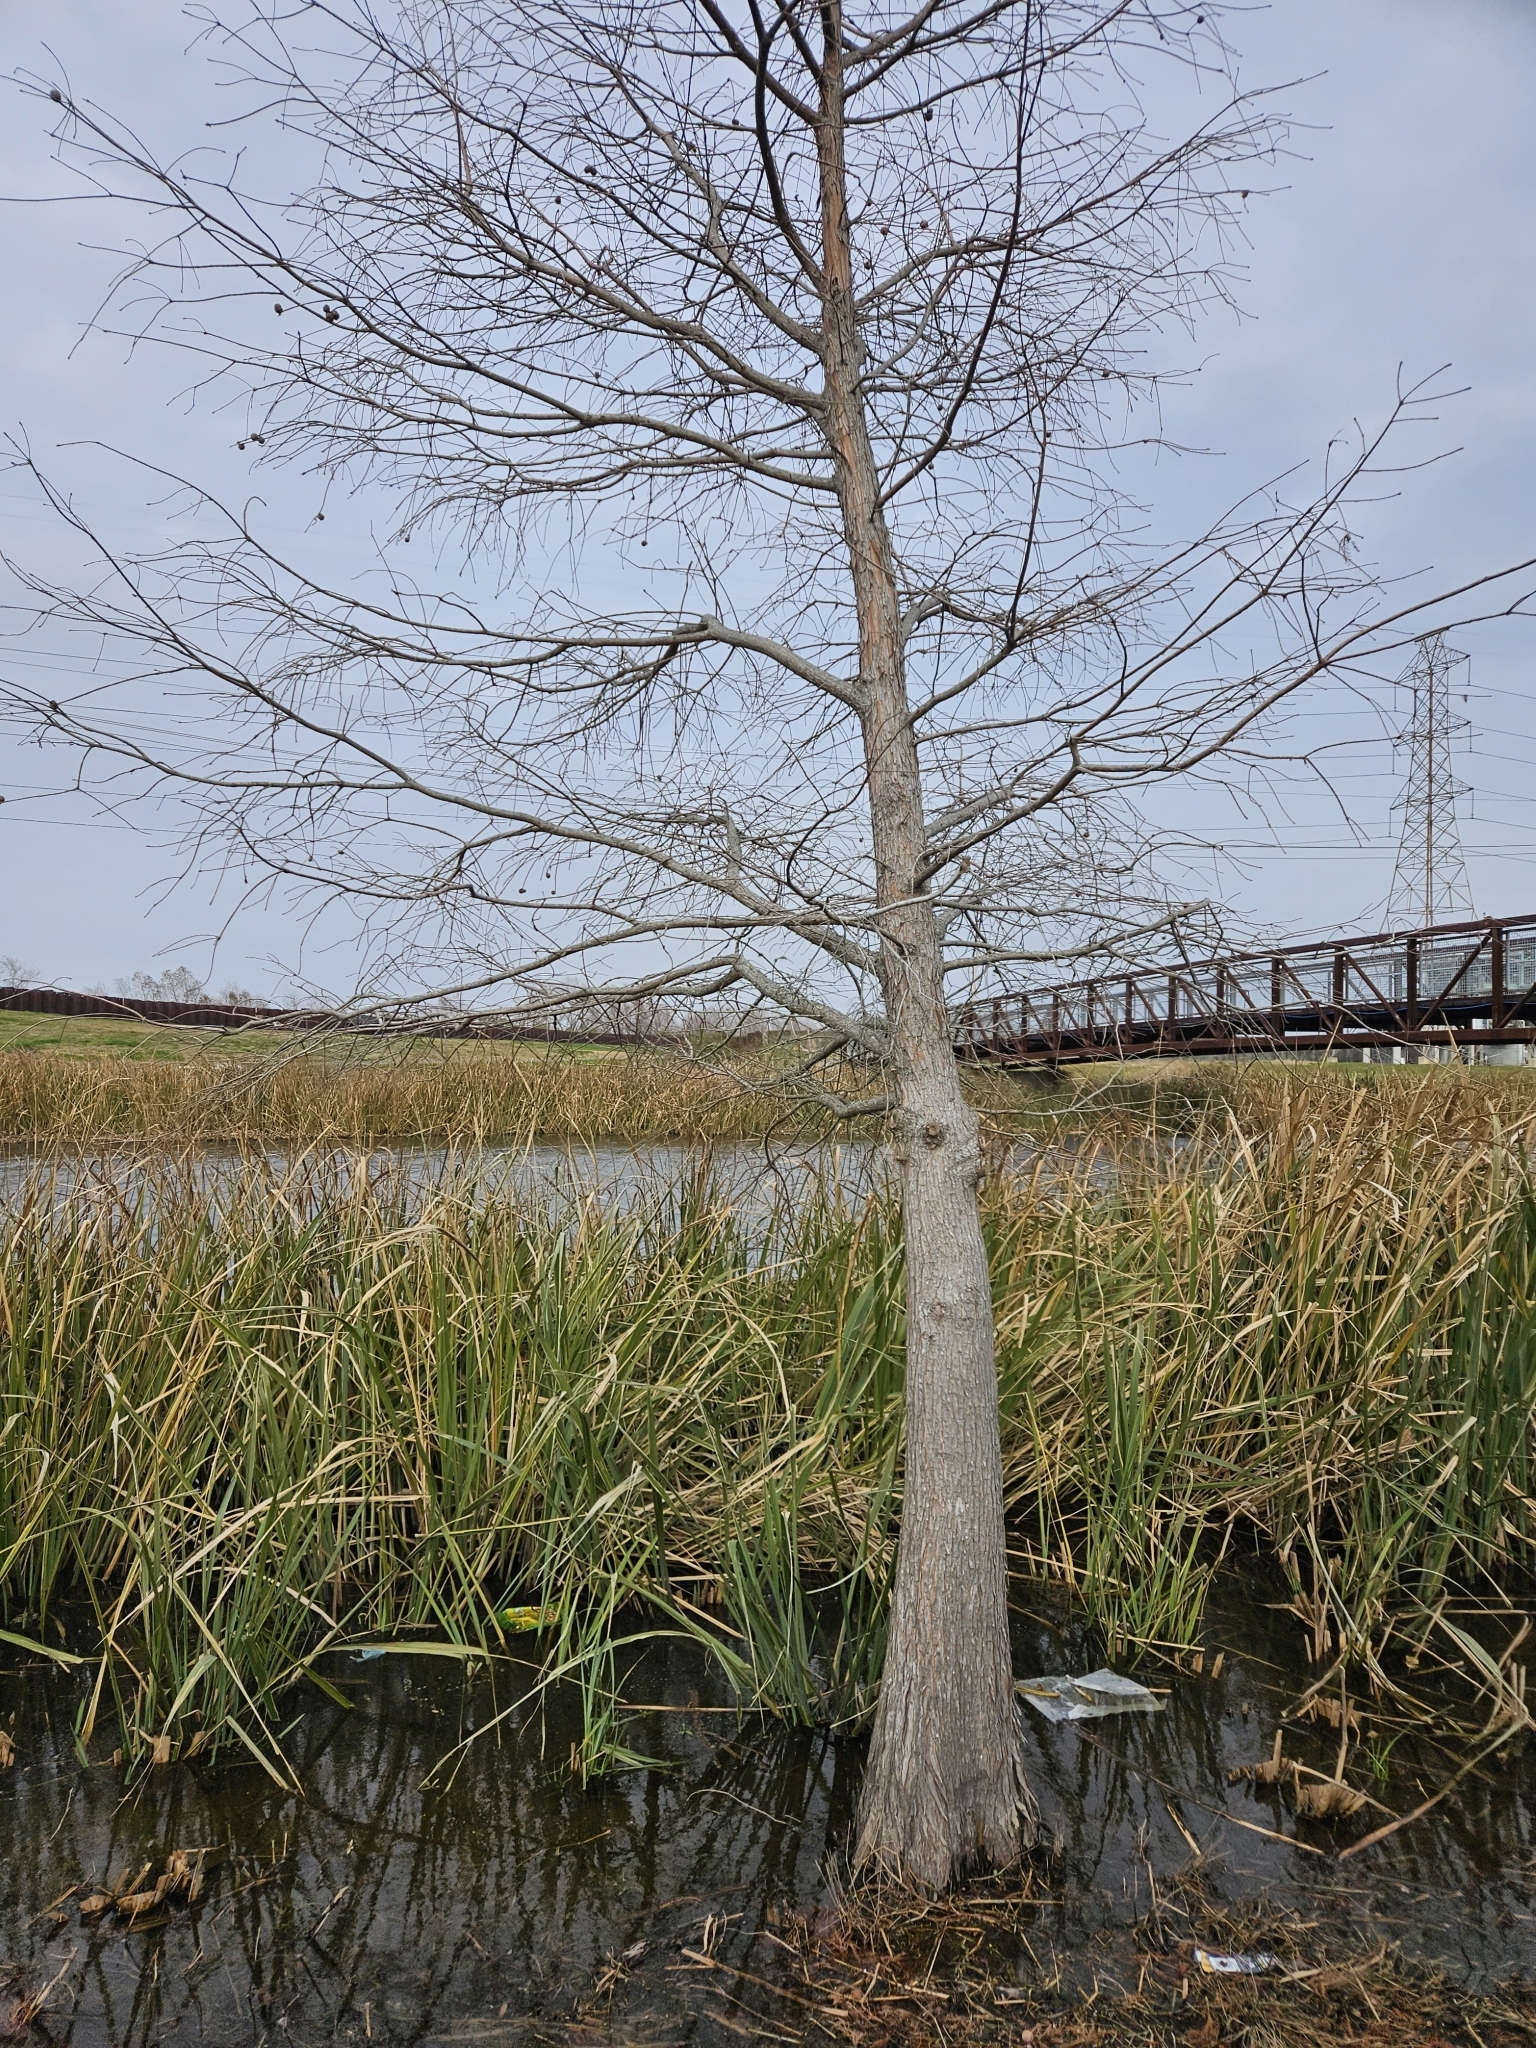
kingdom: Plantae
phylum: Tracheophyta
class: Pinopsida
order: Pinales
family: Cupressaceae
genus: Taxodium
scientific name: Taxodium distichum
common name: Bald cypress
